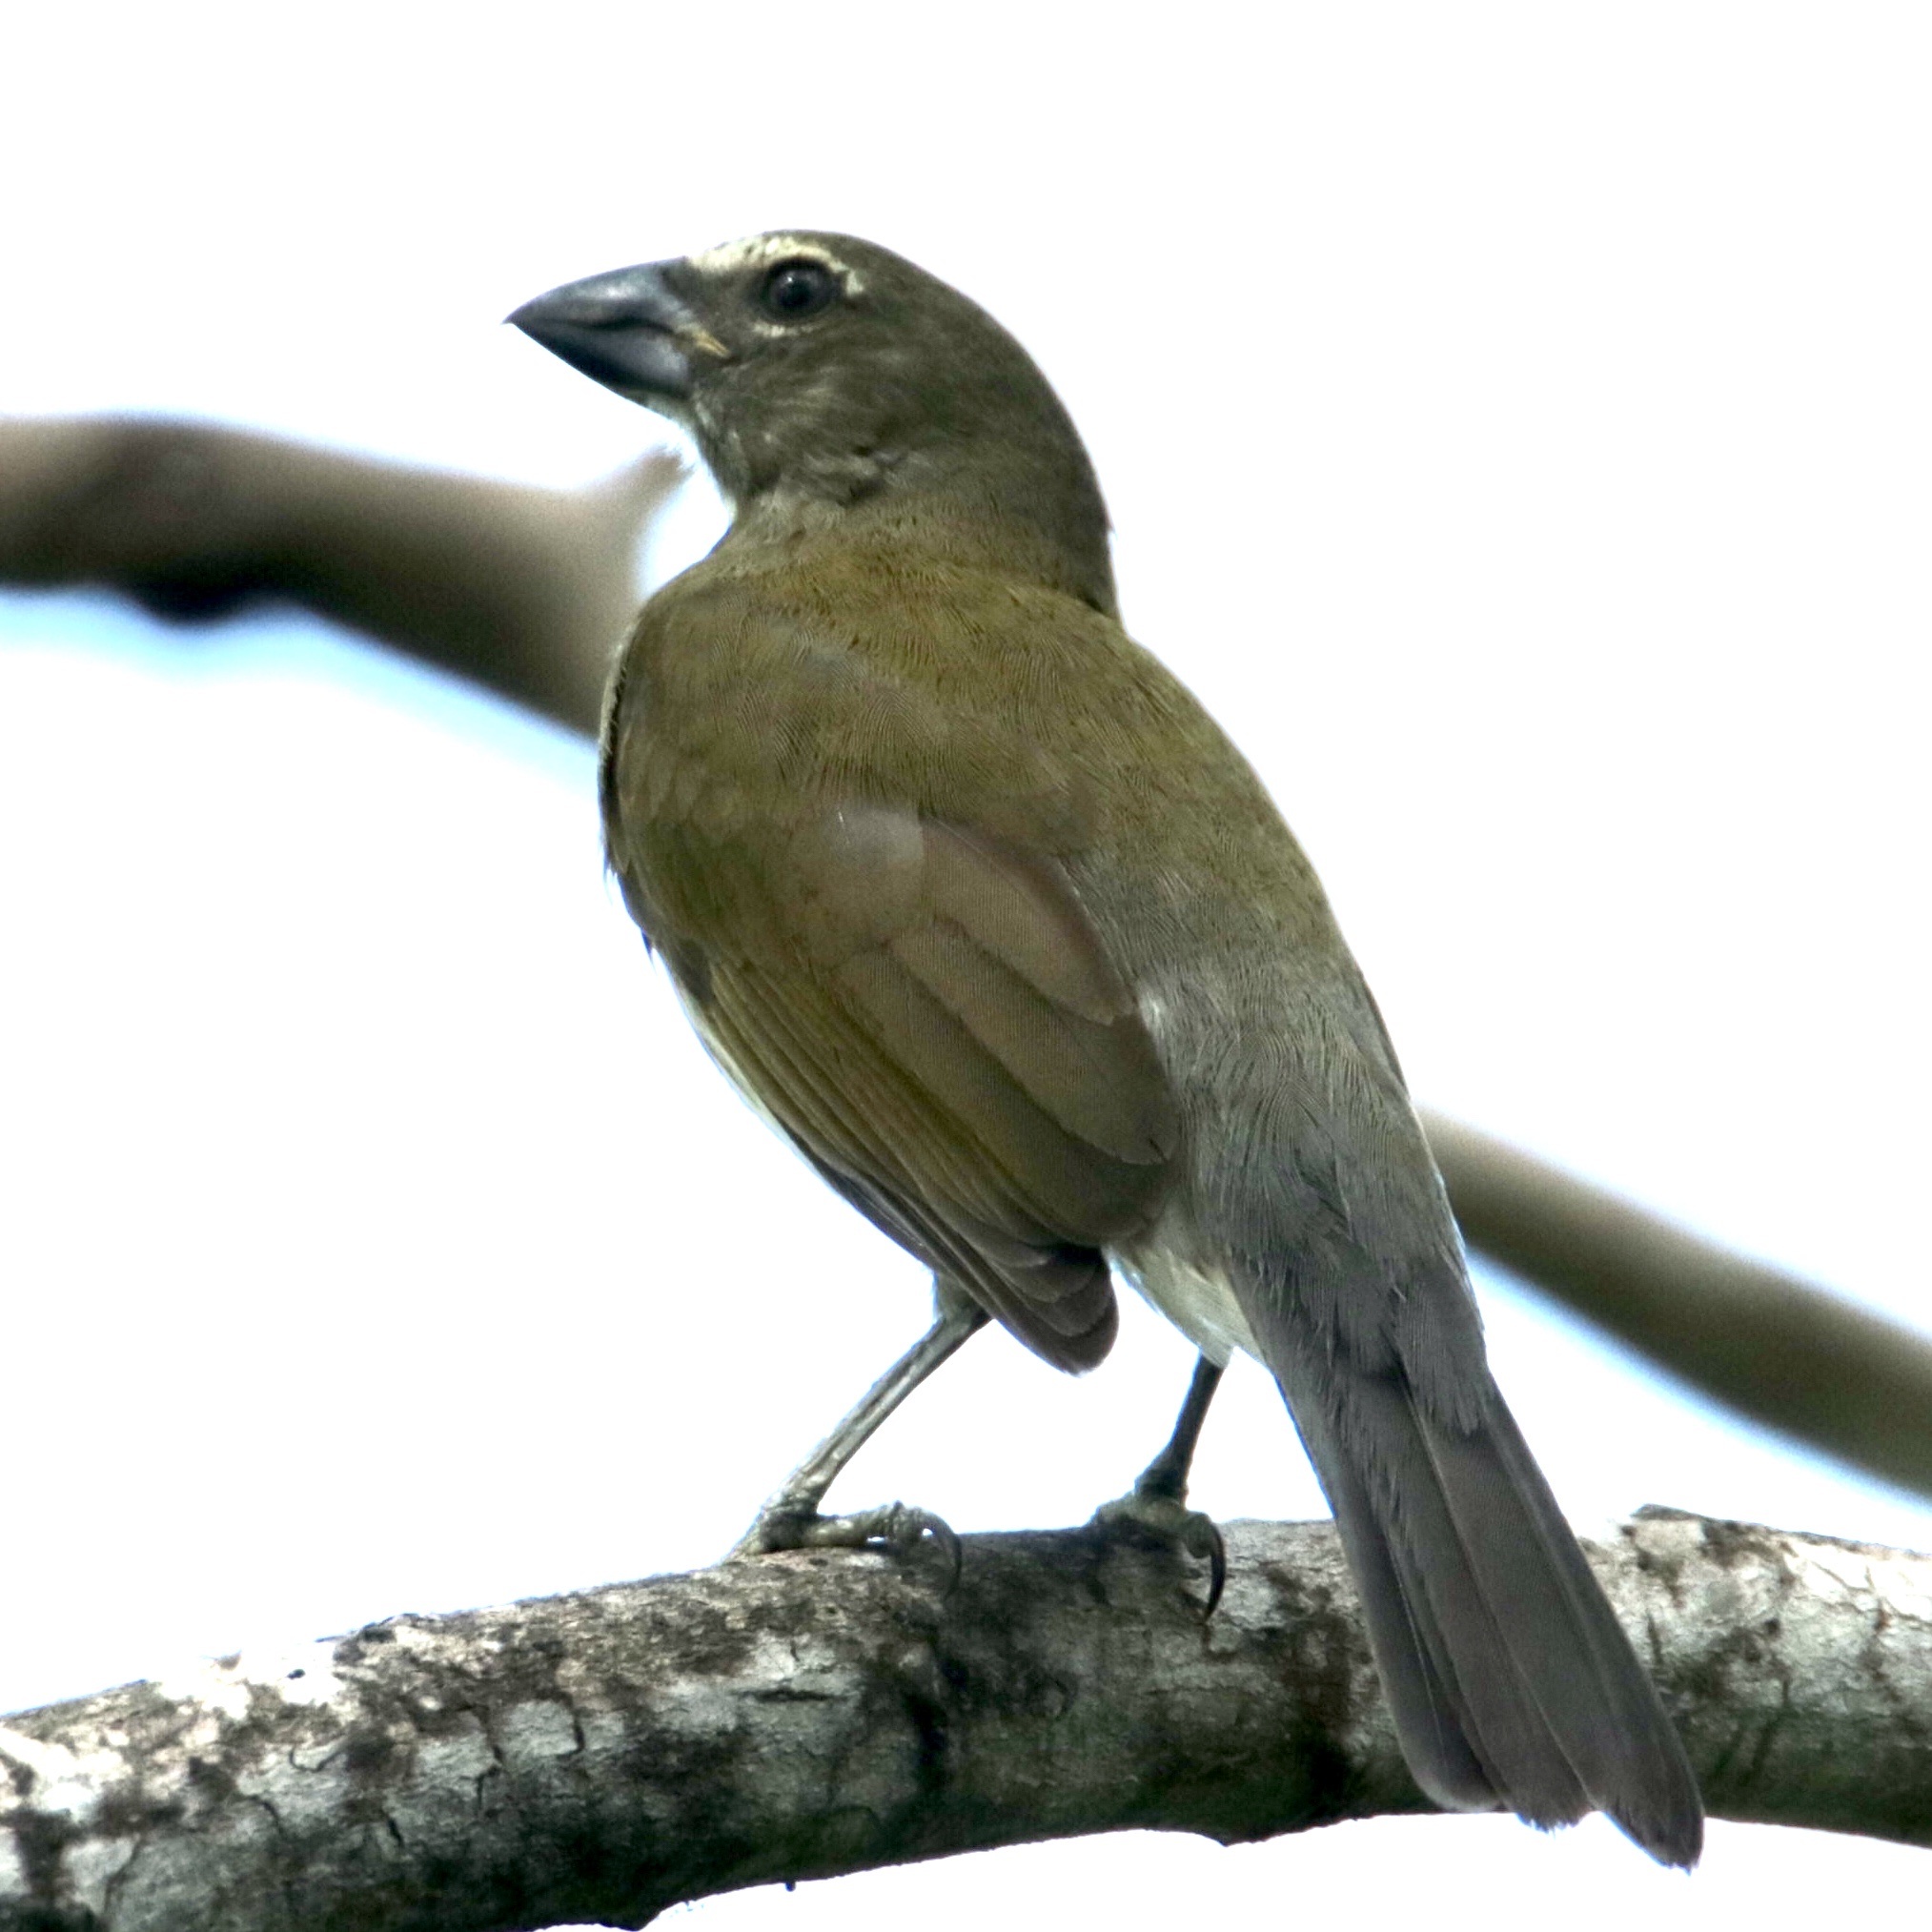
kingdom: Animalia
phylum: Chordata
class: Aves
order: Passeriformes
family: Thraupidae
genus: Saltator
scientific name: Saltator striatipectus
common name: Streaked saltator
